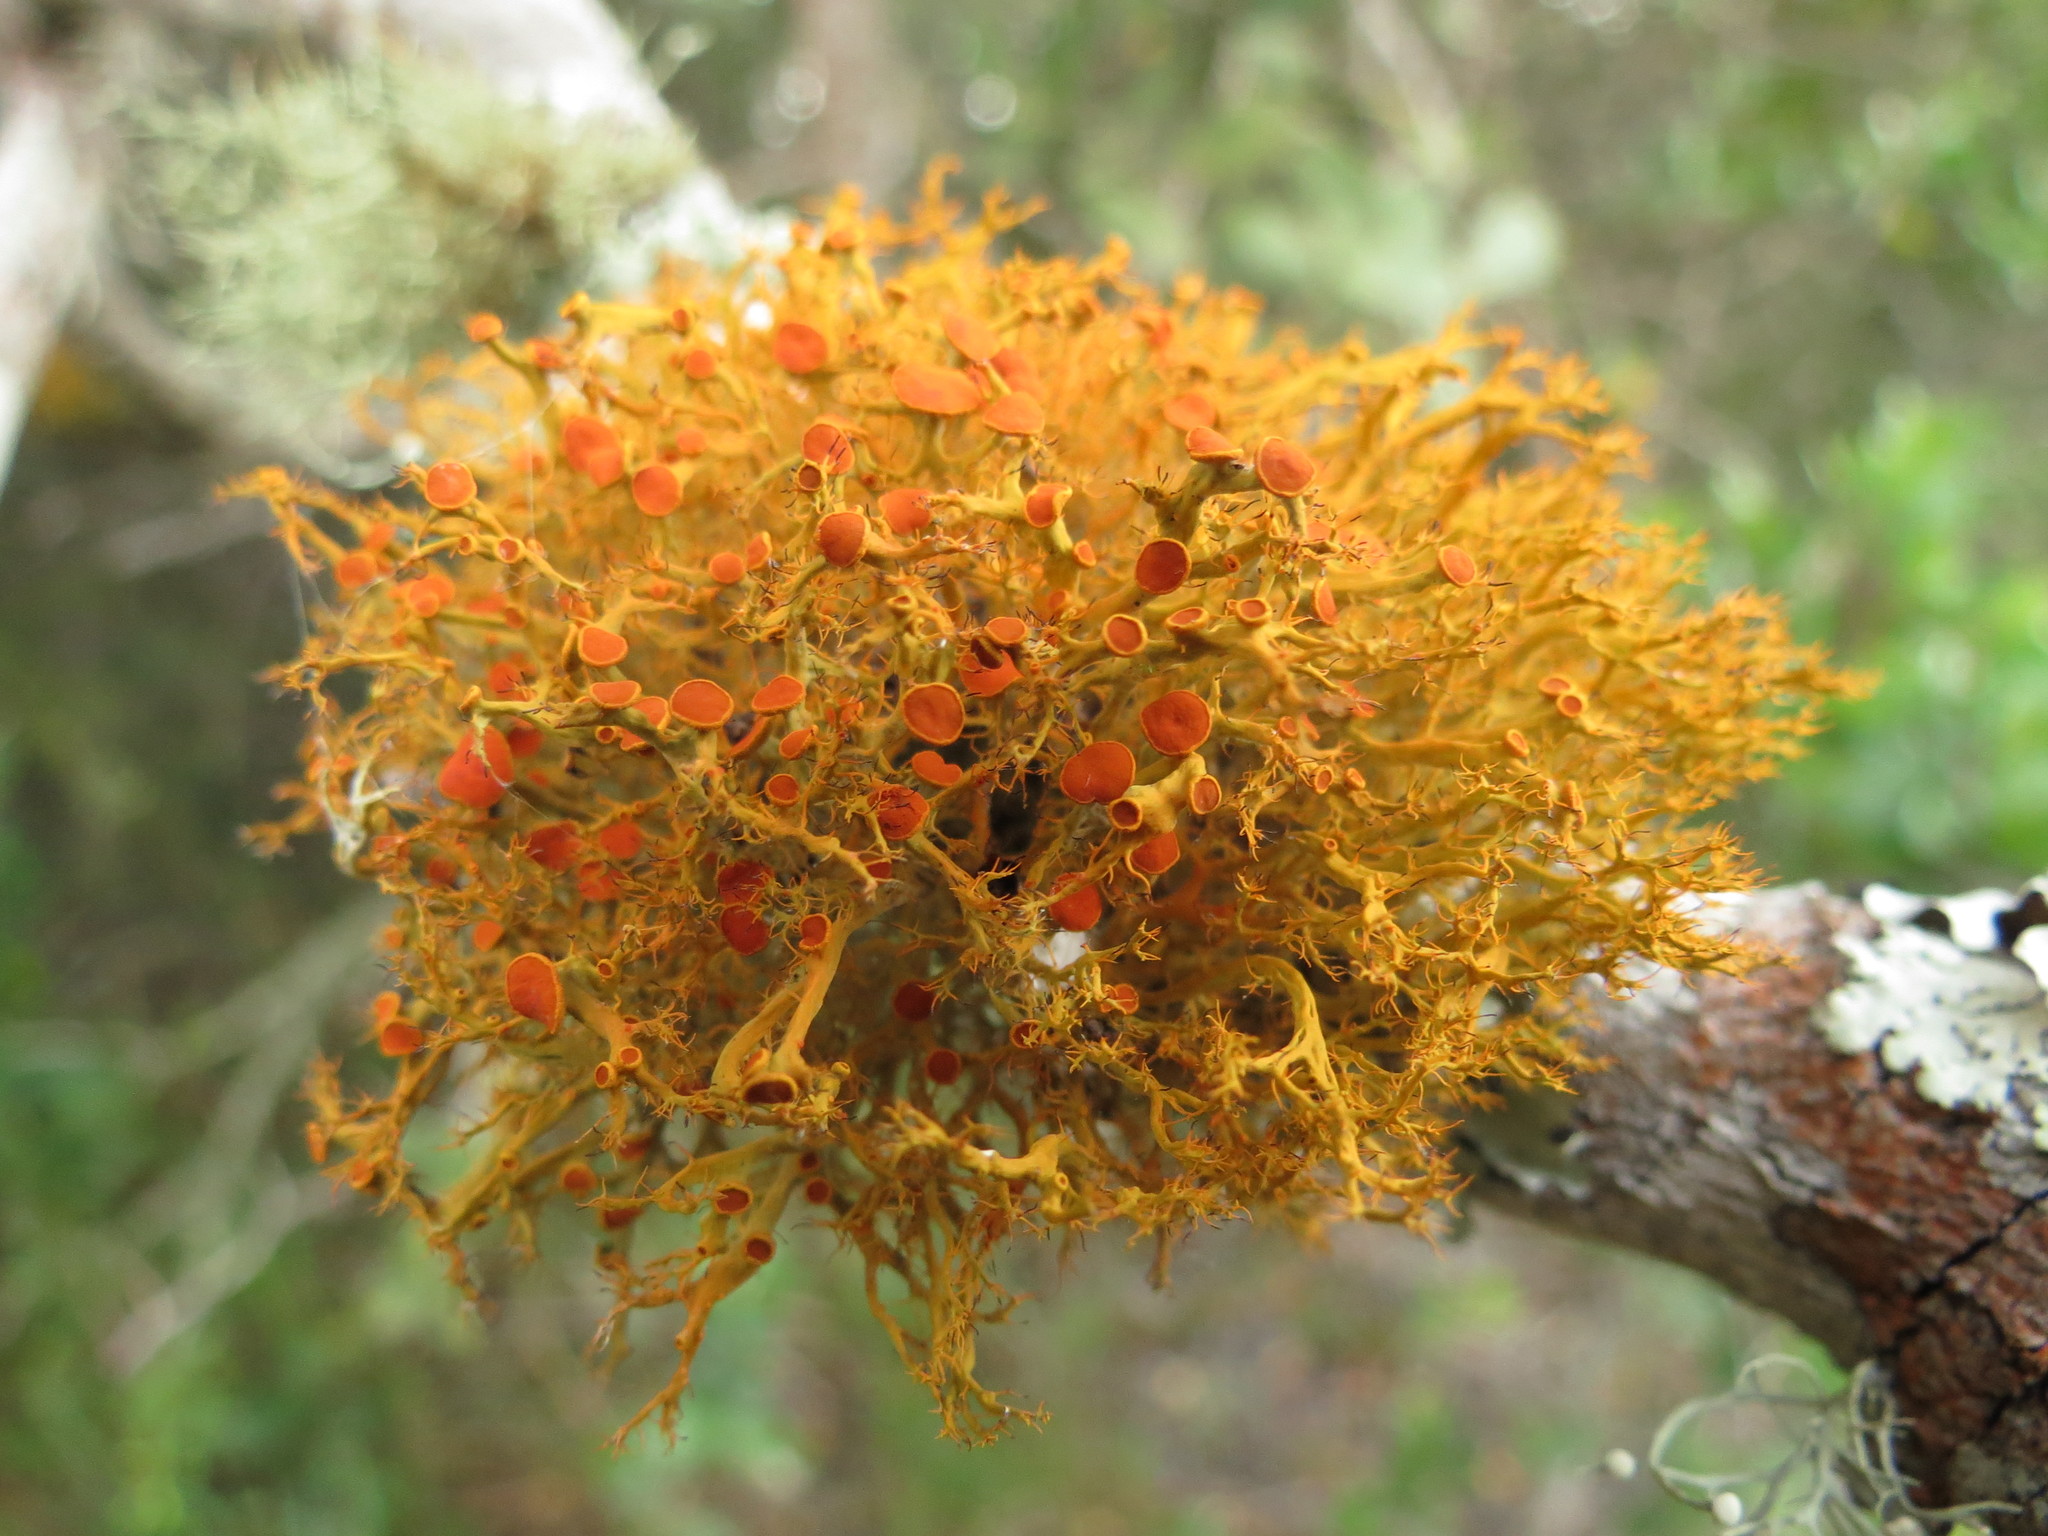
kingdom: Fungi
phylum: Ascomycota
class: Lecanoromycetes
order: Teloschistales
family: Teloschistaceae
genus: Teloschistes
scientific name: Teloschistes inflatus
